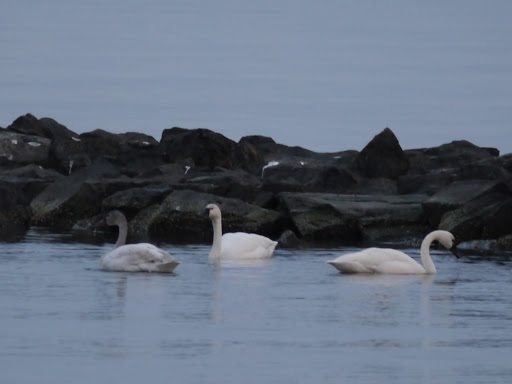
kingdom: Animalia
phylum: Chordata
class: Aves
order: Anseriformes
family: Anatidae
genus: Cygnus
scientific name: Cygnus columbianus
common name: Tundra swan
